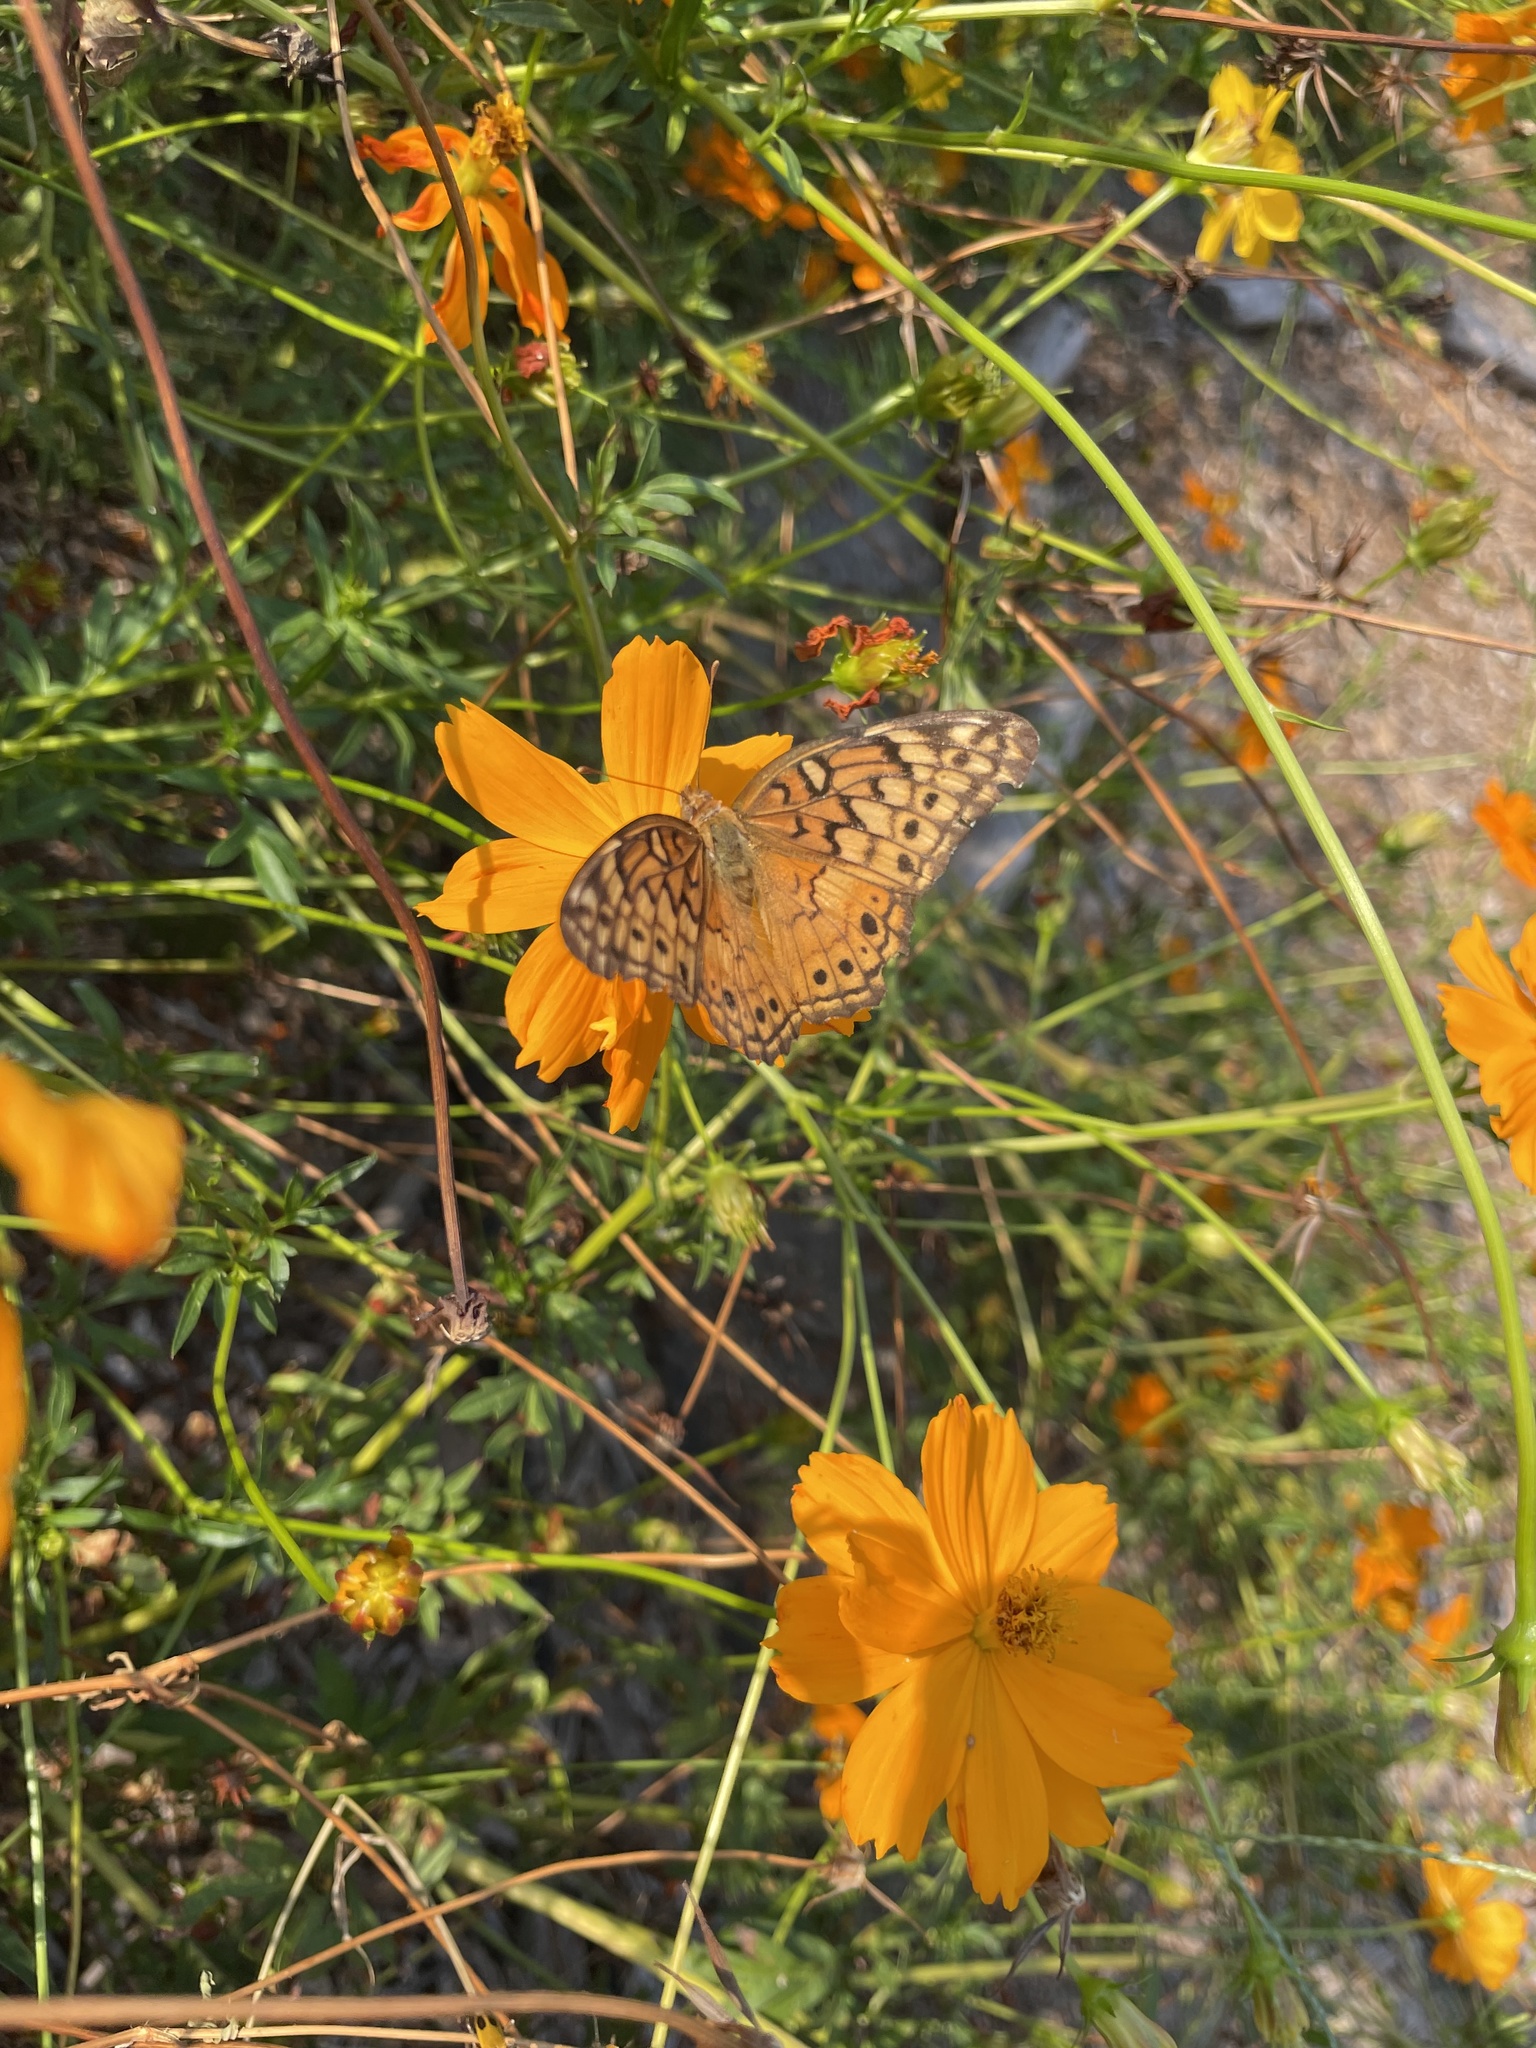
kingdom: Animalia
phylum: Arthropoda
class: Insecta
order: Lepidoptera
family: Nymphalidae
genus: Euptoieta
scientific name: Euptoieta claudia
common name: Variegated fritillary
